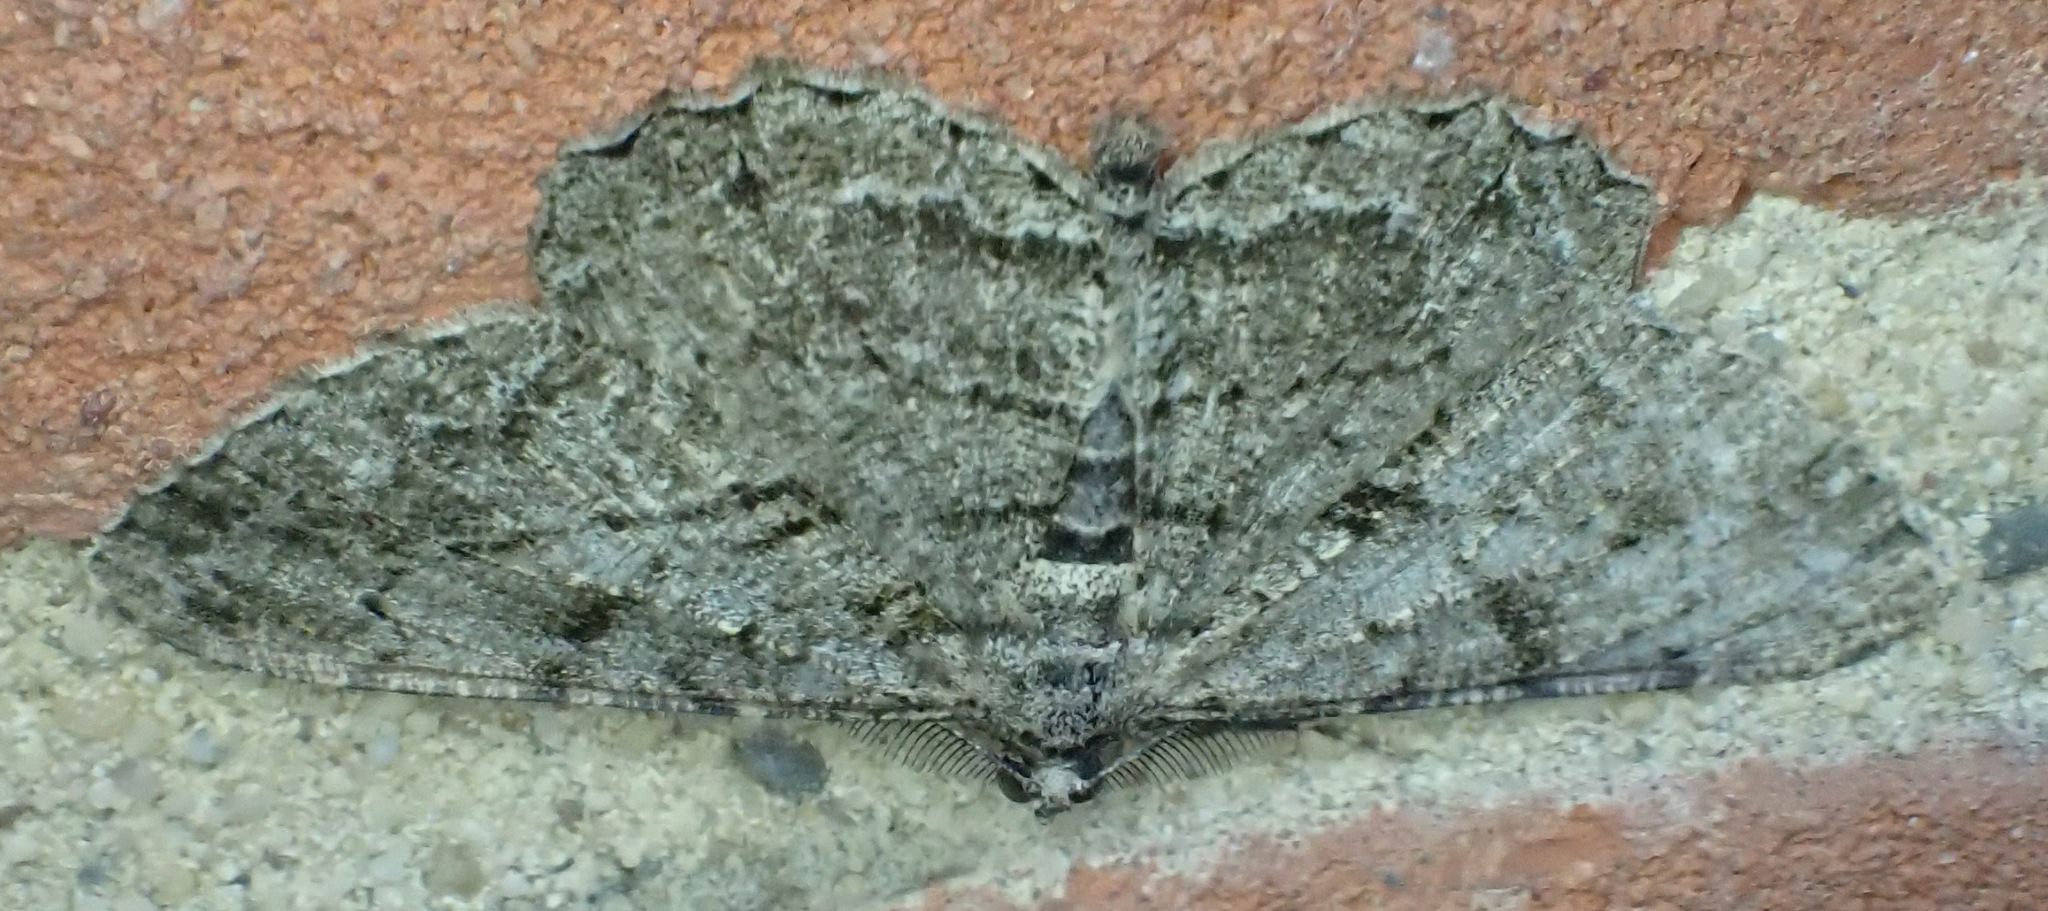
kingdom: Animalia
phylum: Arthropoda
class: Insecta
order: Lepidoptera
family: Geometridae
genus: Peribatodes
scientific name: Peribatodes rhomboidaria
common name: Willow beauty
